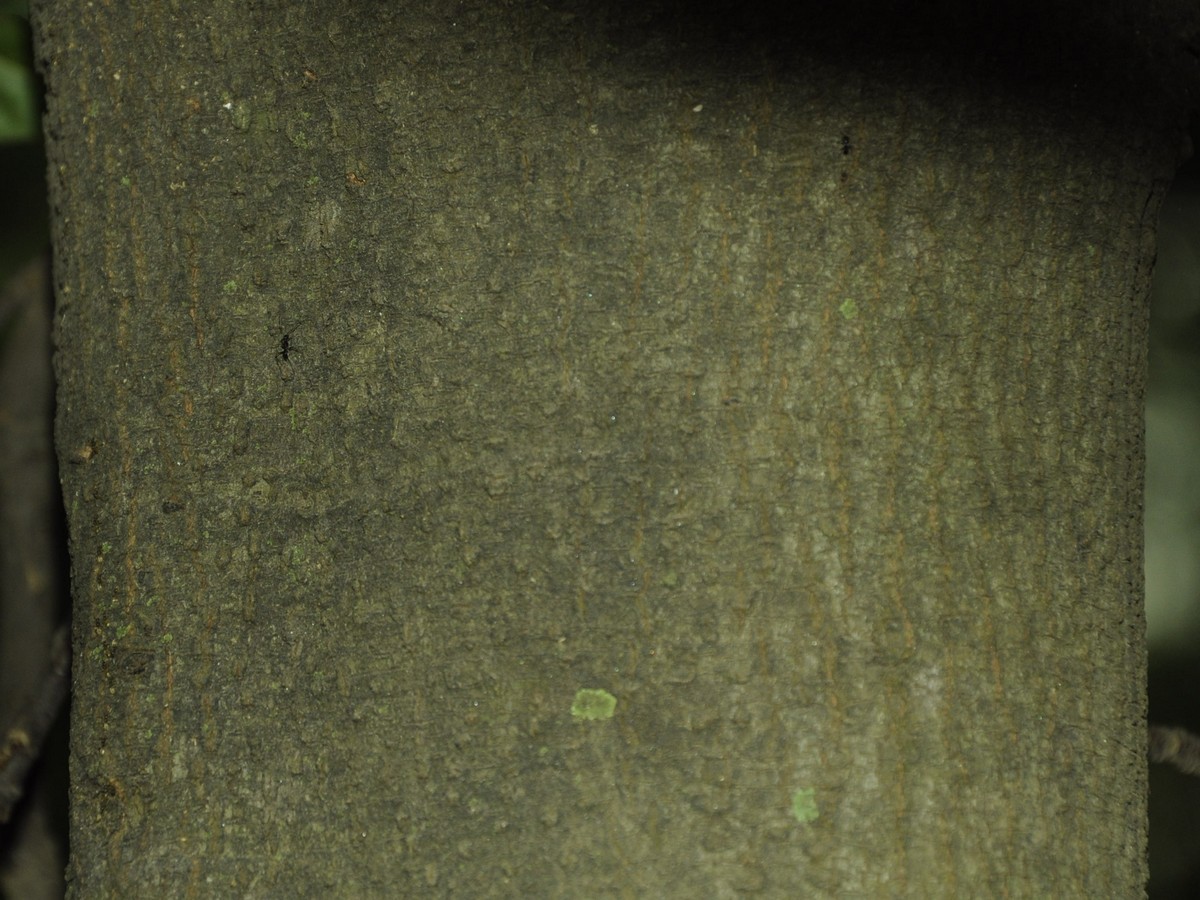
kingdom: Plantae
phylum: Tracheophyta
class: Magnoliopsida
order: Malvales
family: Bixaceae
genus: Bixa
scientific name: Bixa orellana
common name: Lipsticktree
